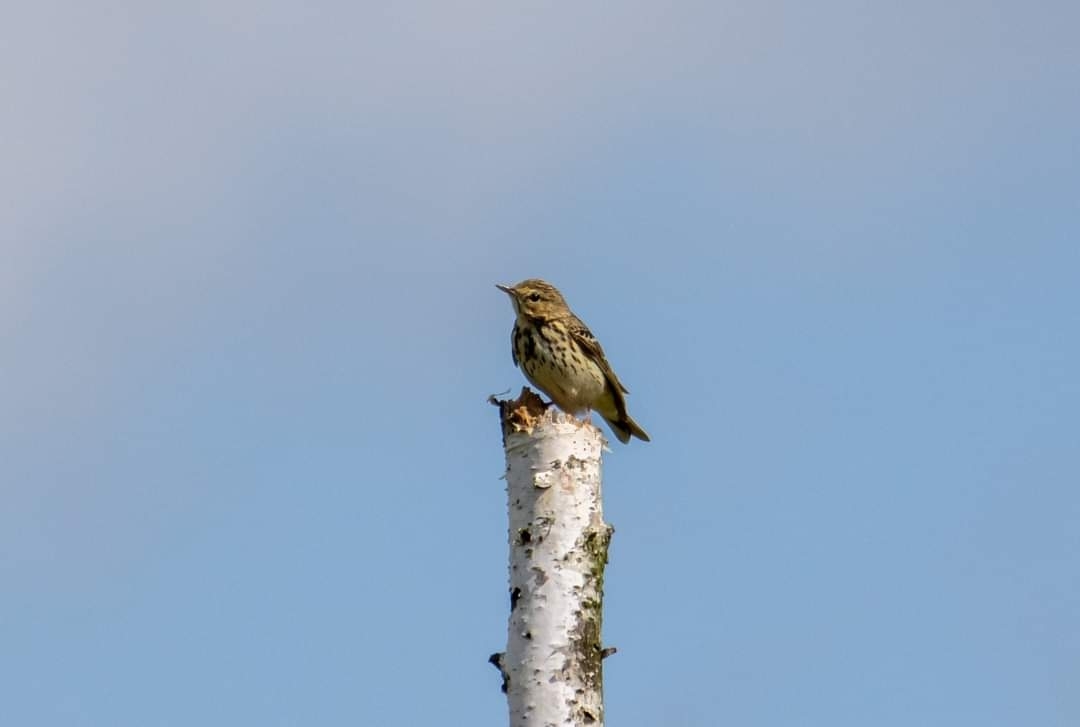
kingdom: Animalia
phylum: Chordata
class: Aves
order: Passeriformes
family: Motacillidae
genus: Anthus
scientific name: Anthus trivialis
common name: Tree pipit
